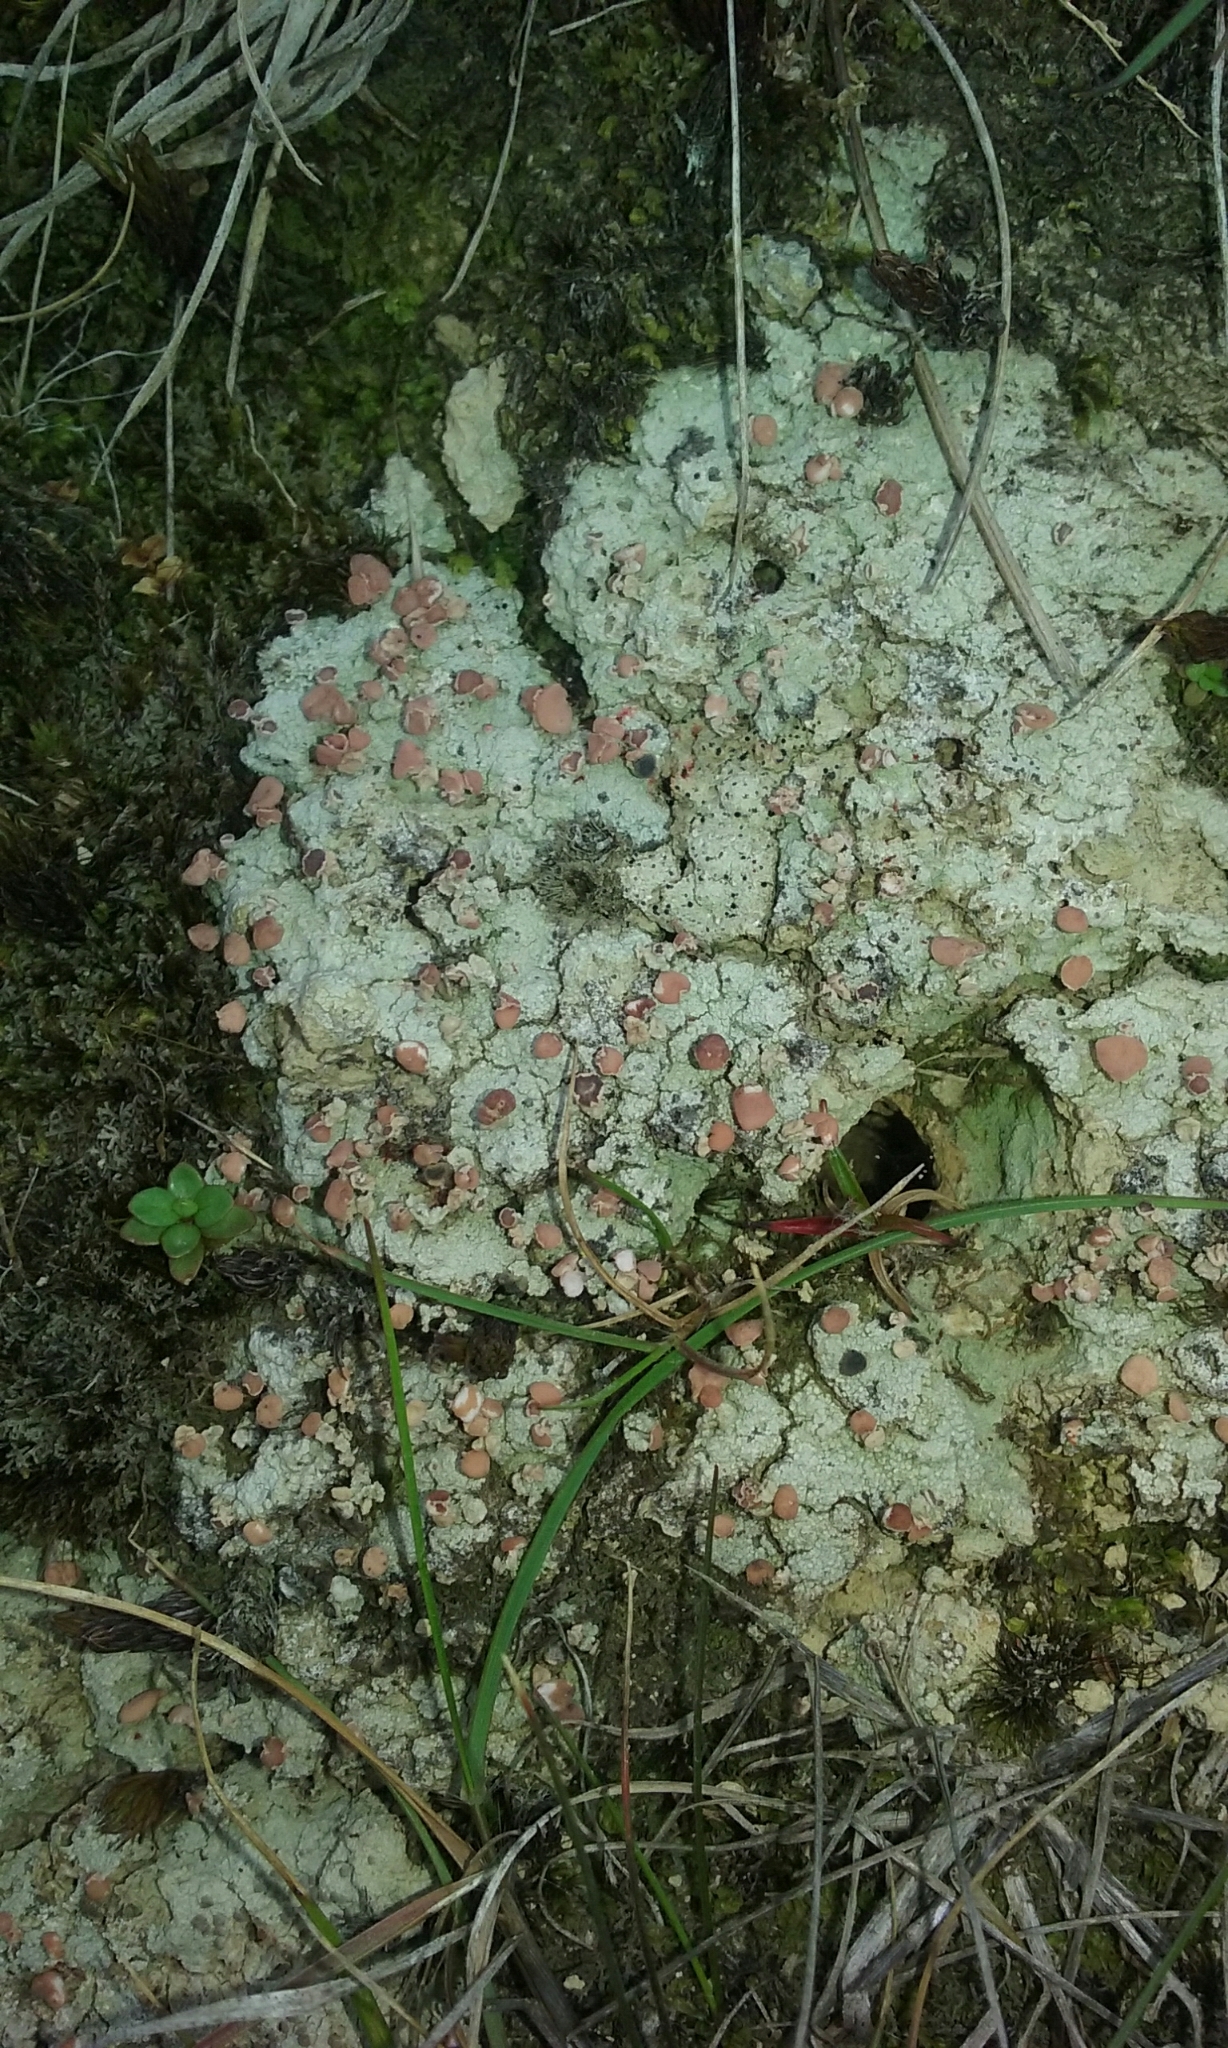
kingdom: Fungi
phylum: Ascomycota
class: Lecanoromycetes
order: Baeomycetales
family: Baeomycetaceae
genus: Baeomyces
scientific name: Baeomyces heteromorphus
